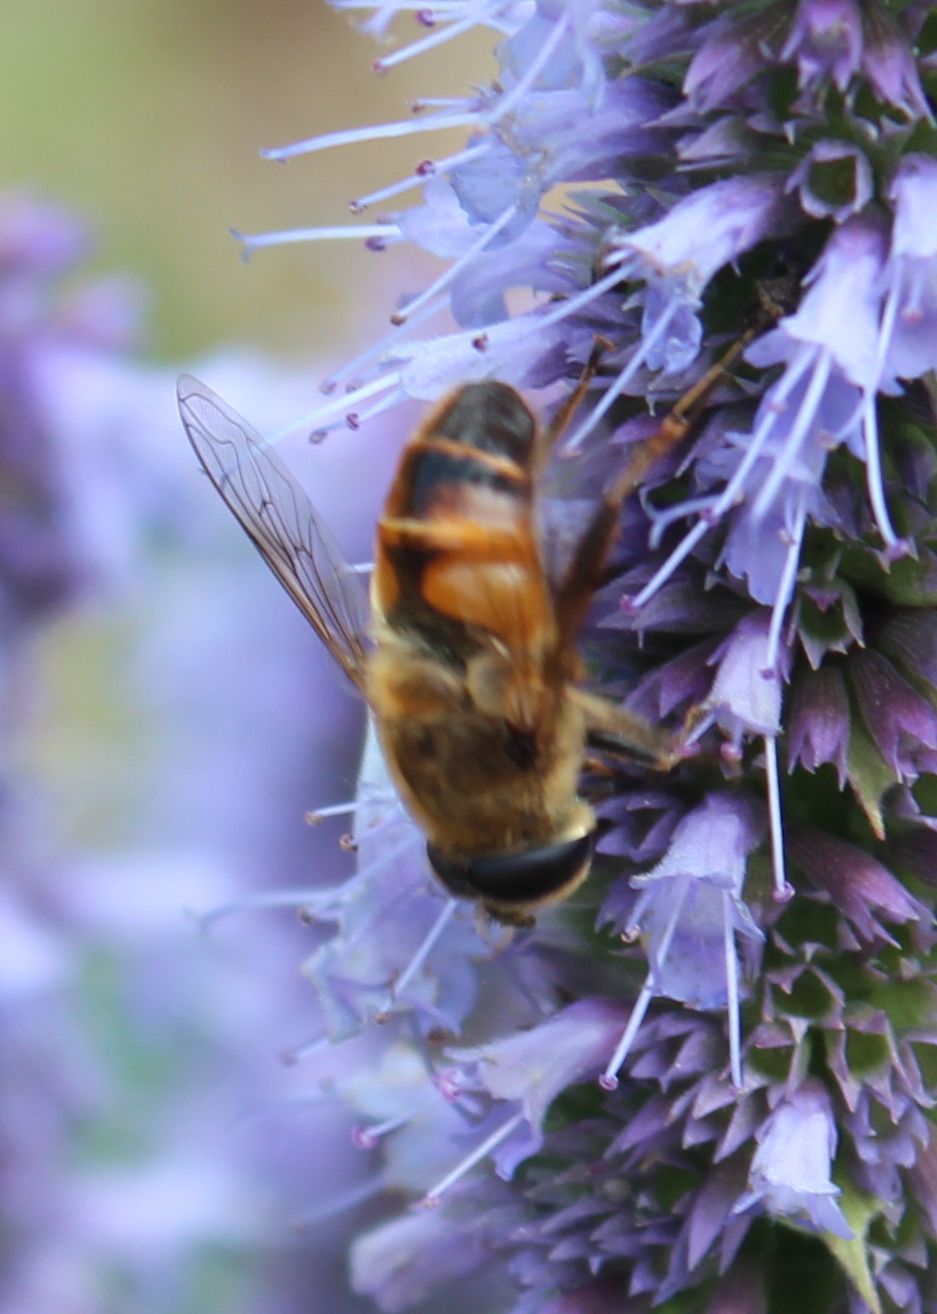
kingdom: Animalia
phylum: Arthropoda
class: Insecta
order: Diptera
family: Syrphidae
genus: Eristalis
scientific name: Eristalis tenax
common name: Drone fly
